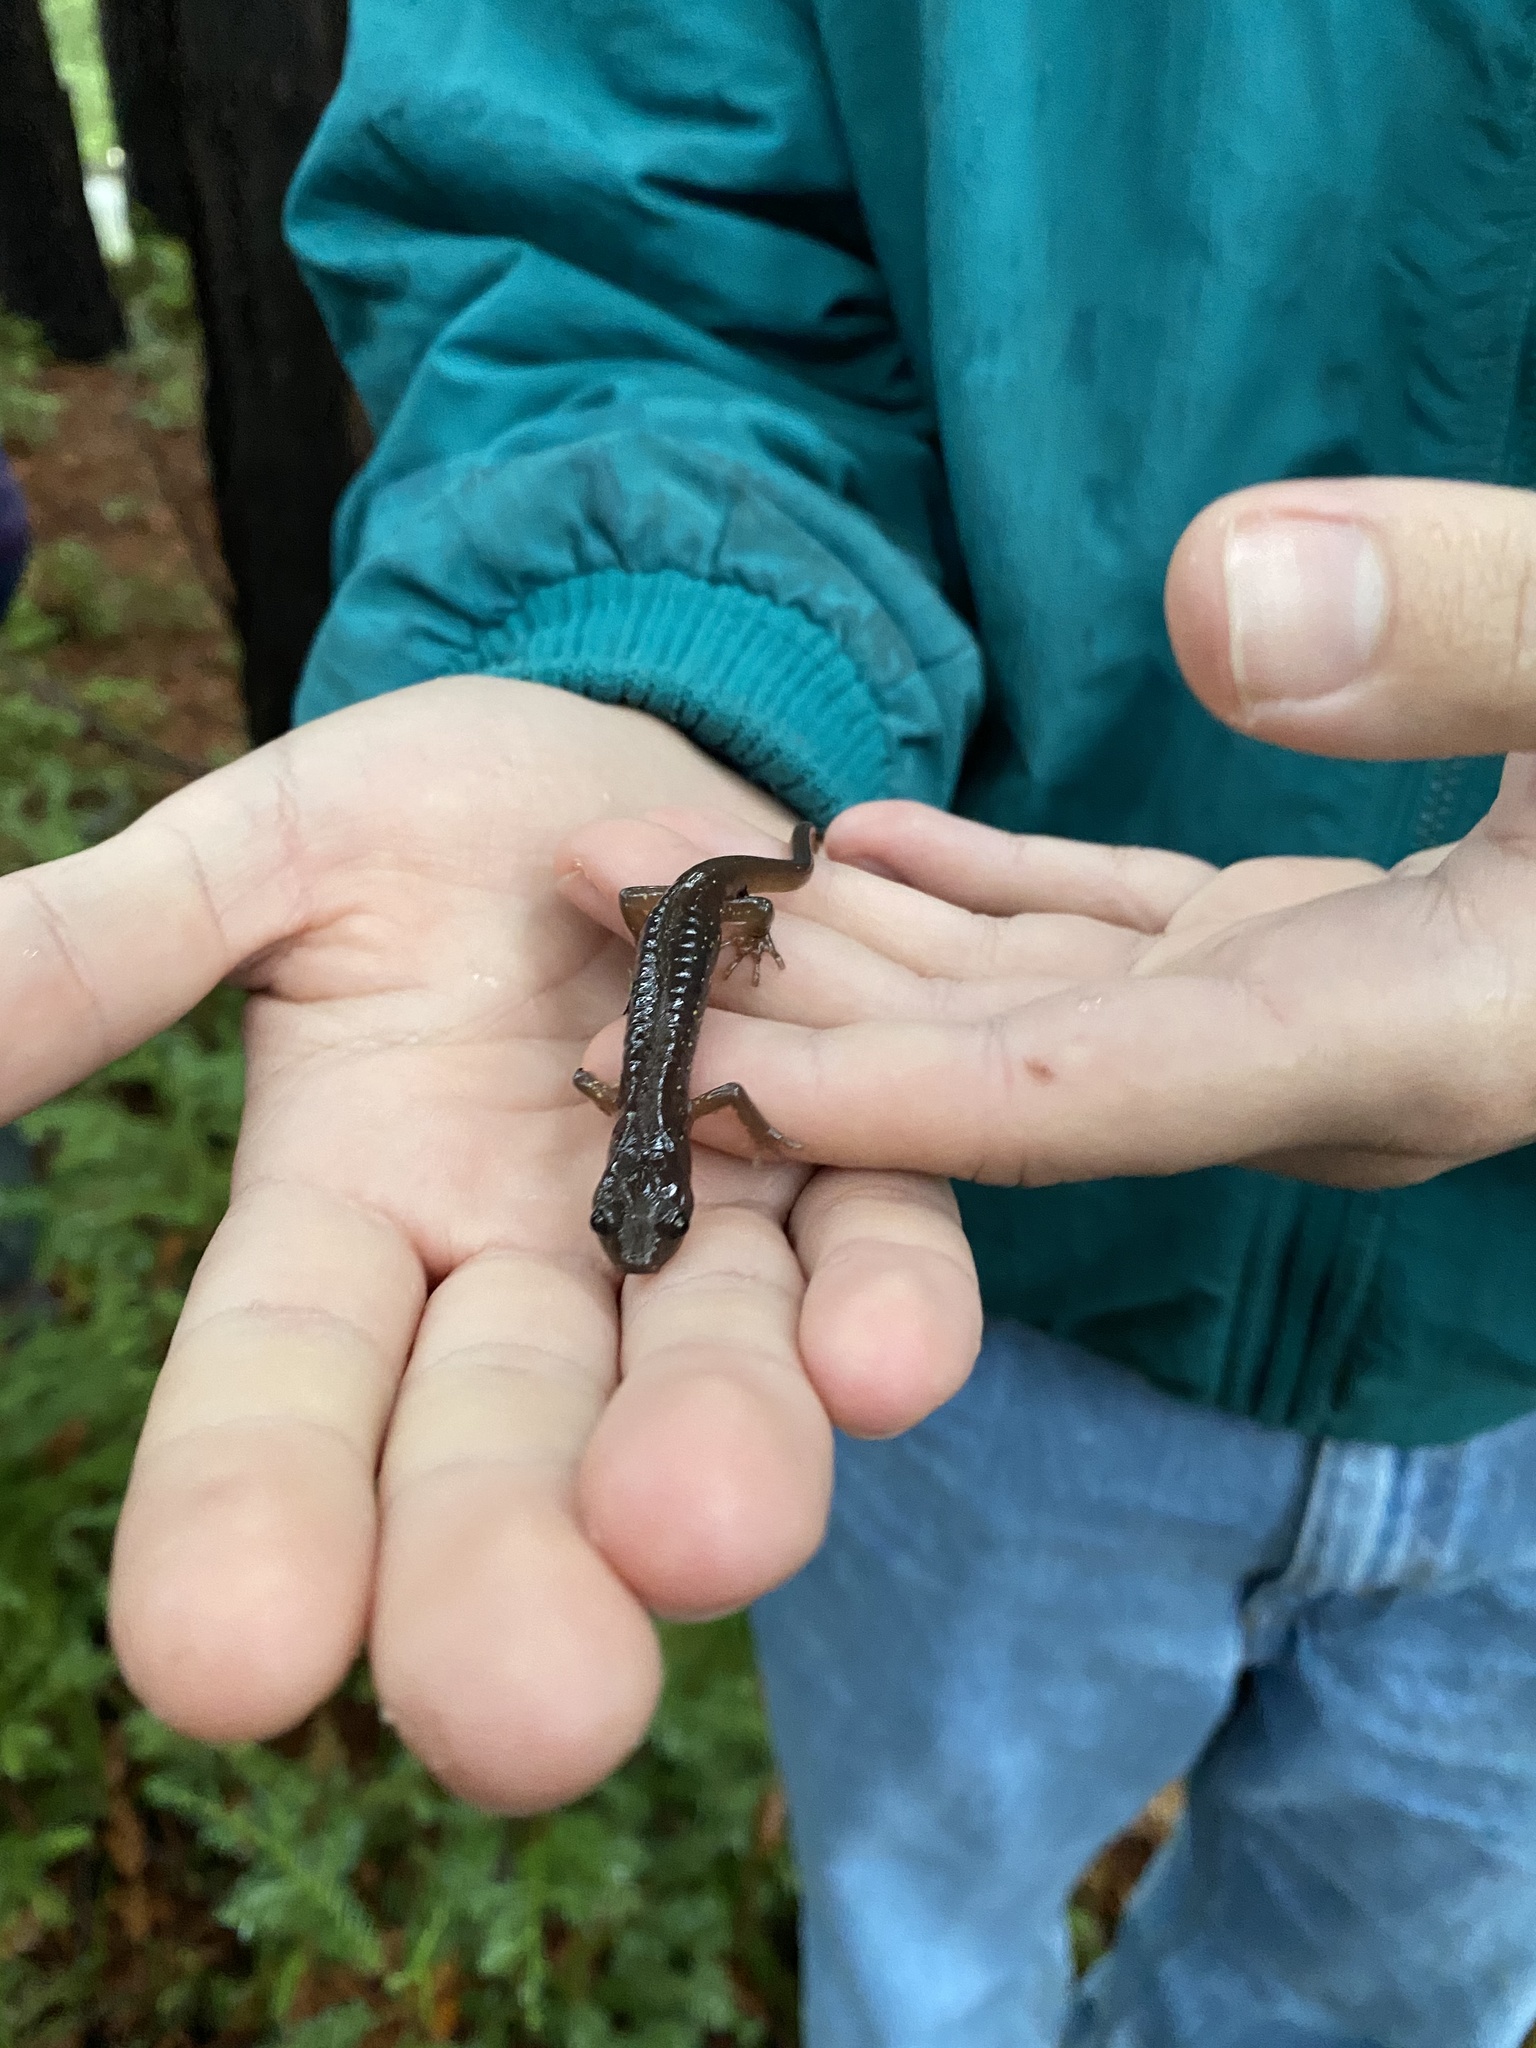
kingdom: Animalia
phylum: Chordata
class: Amphibia
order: Caudata
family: Plethodontidae
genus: Aneides
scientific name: Aneides lugubris
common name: Arboreal salamander
